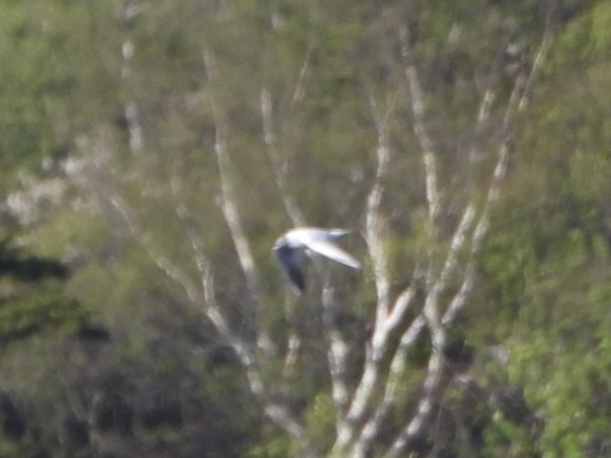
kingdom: Animalia
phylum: Chordata
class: Aves
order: Charadriiformes
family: Laridae
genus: Chroicocephalus
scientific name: Chroicocephalus ridibundus
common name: Black-headed gull
